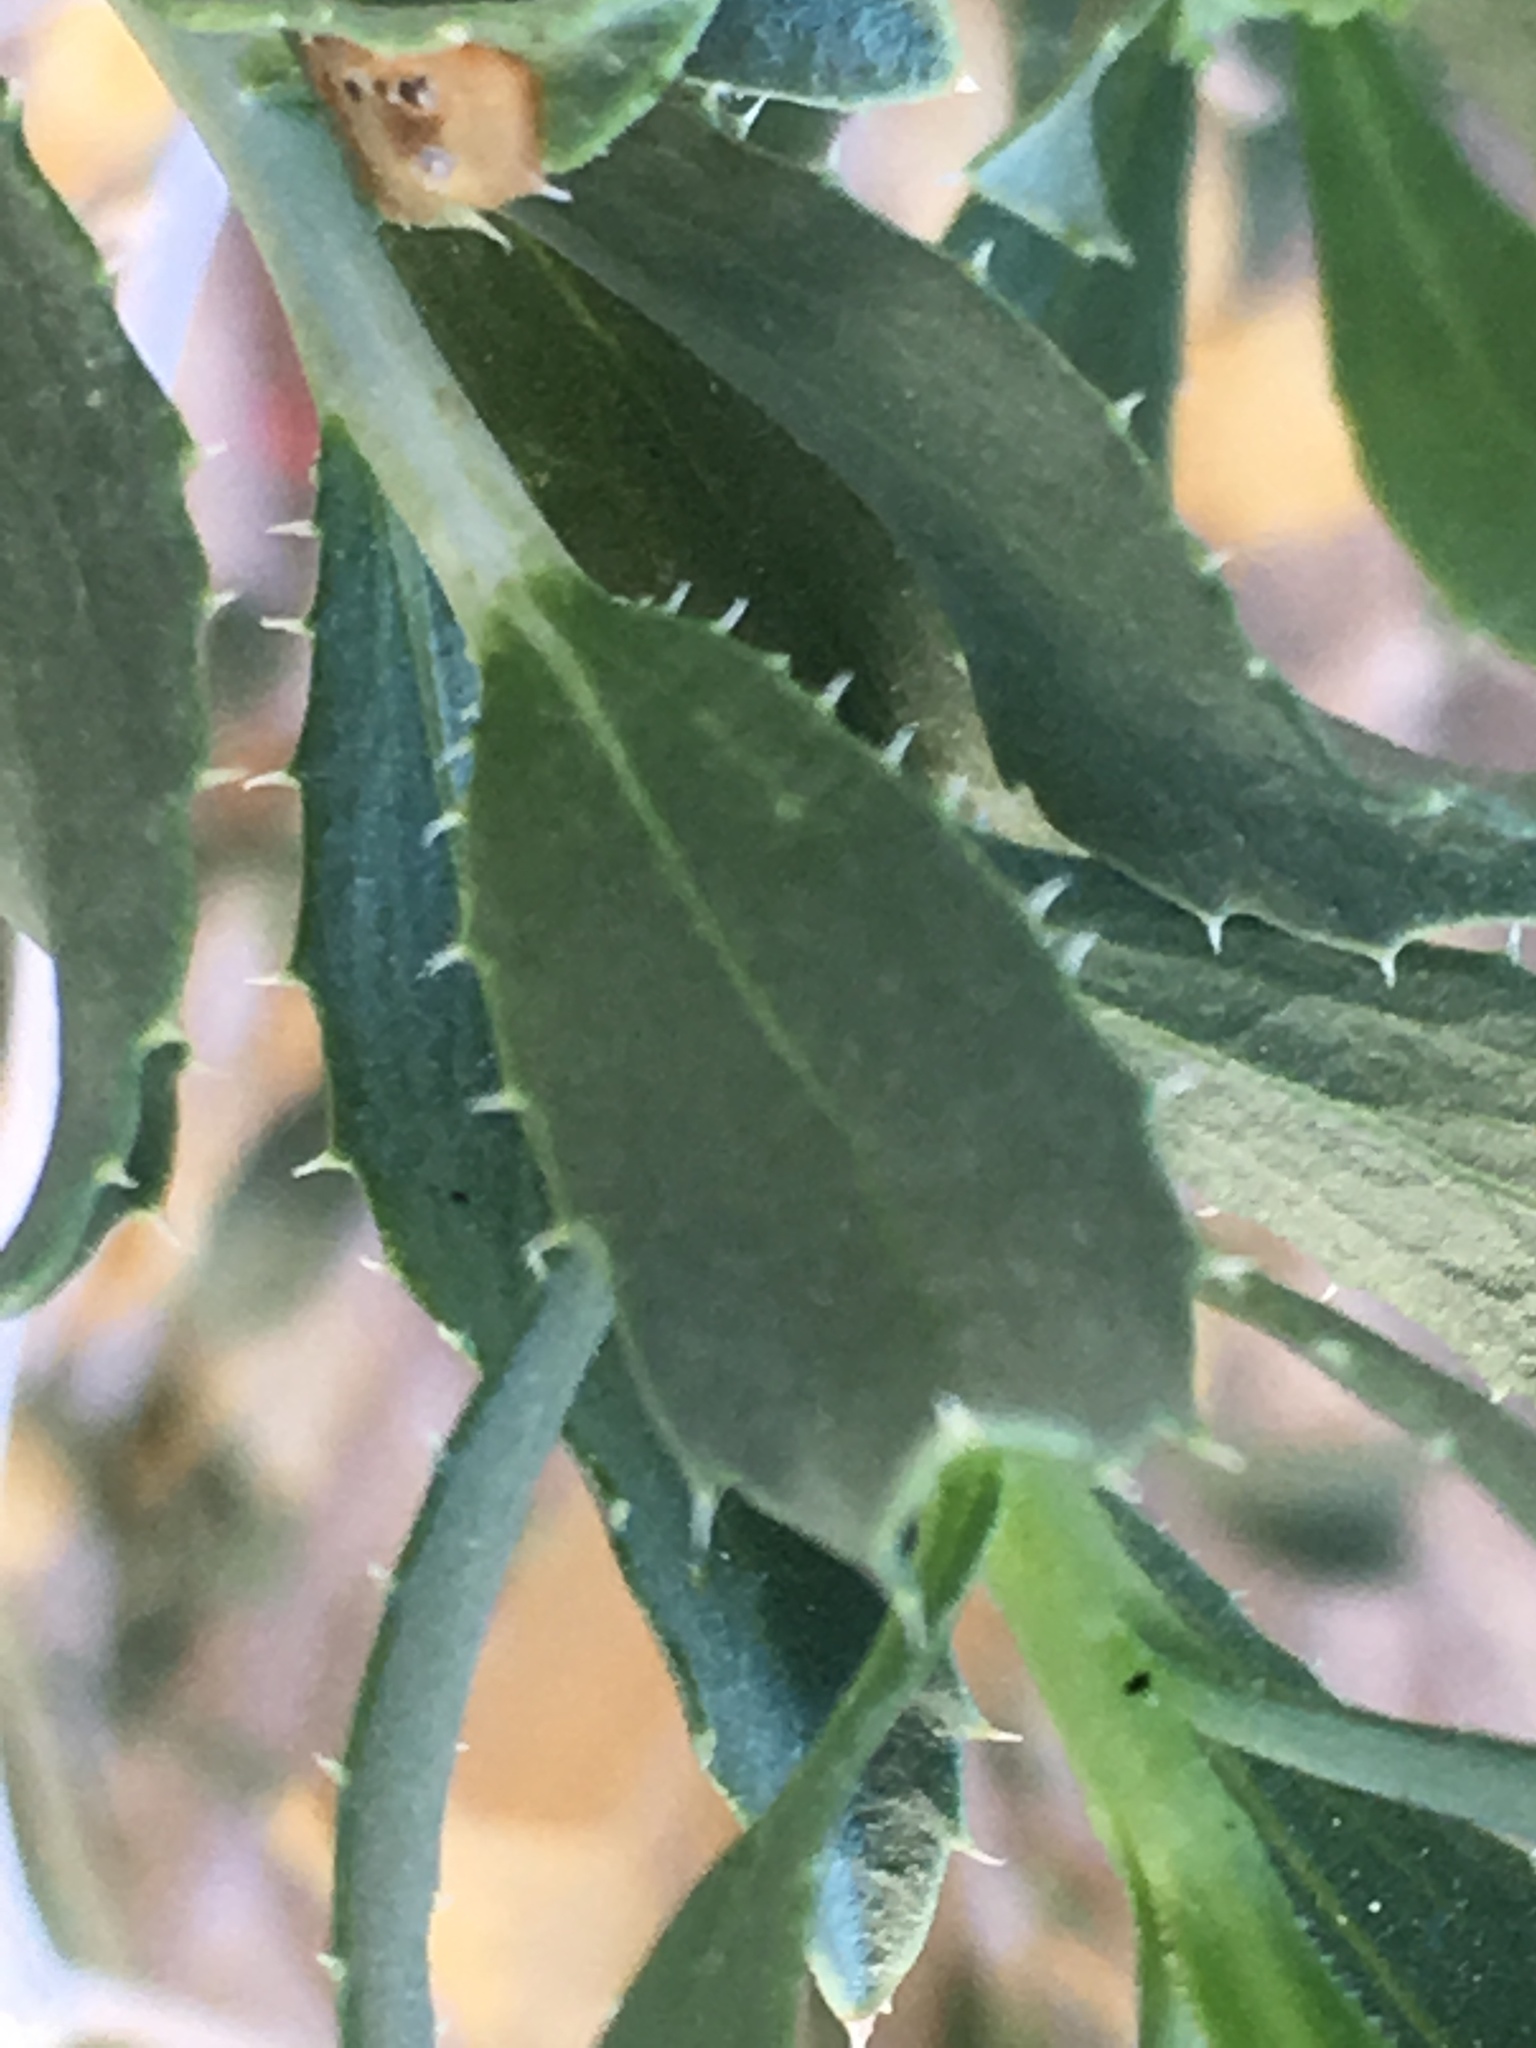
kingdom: Plantae
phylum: Tracheophyta
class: Magnoliopsida
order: Asterales
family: Asteraceae
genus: Xylorhiza
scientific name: Xylorhiza orcuttii
